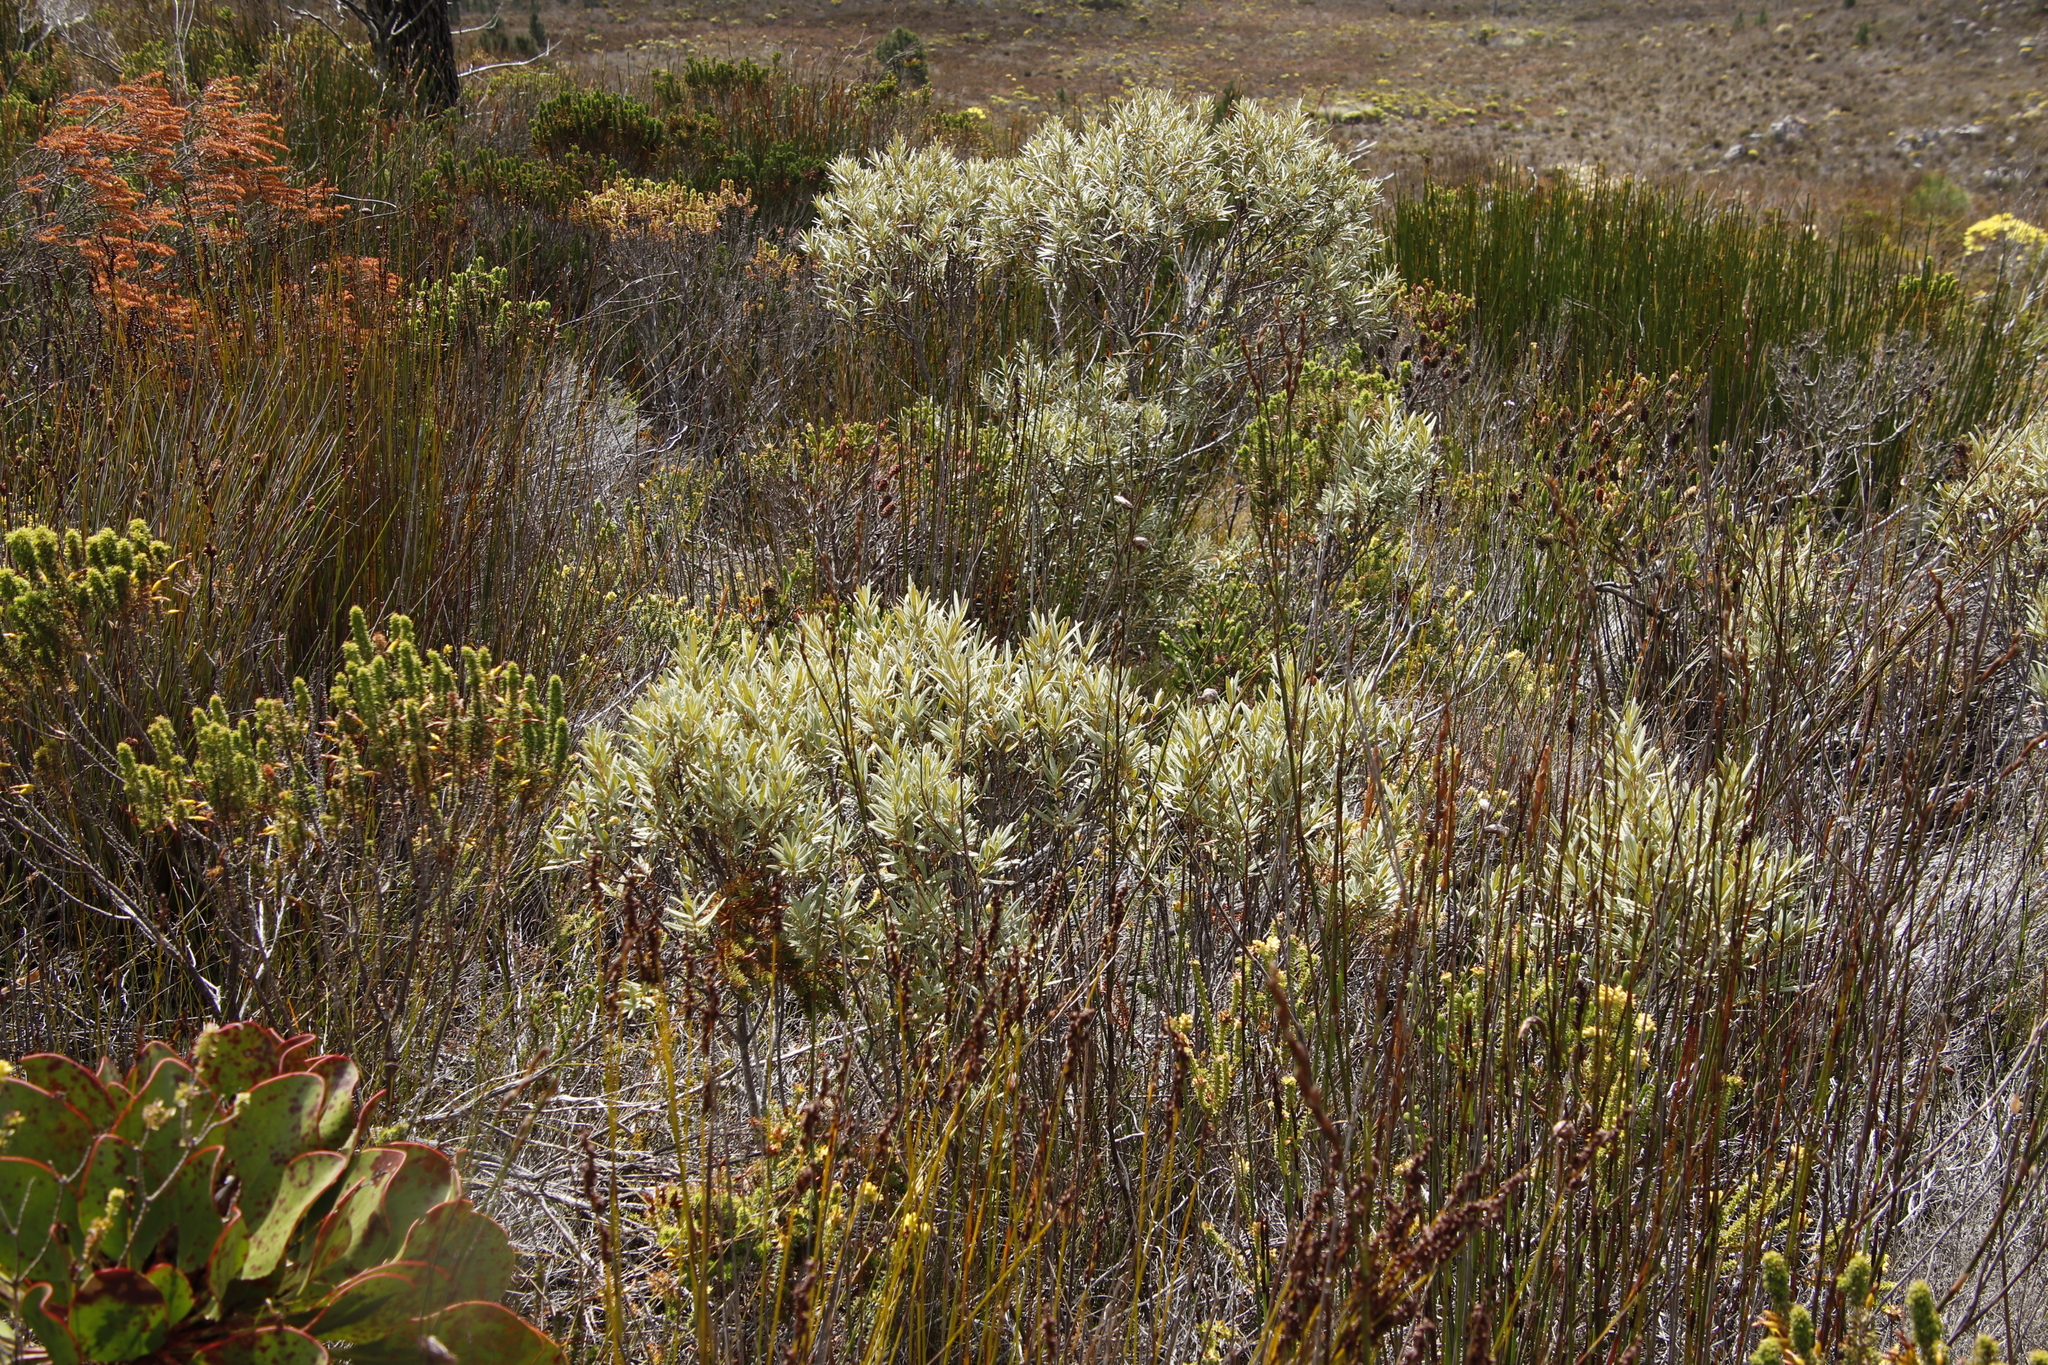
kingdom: Plantae
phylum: Tracheophyta
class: Magnoliopsida
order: Cornales
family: Grubbiaceae
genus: Grubbia
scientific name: Grubbia tomentosa
